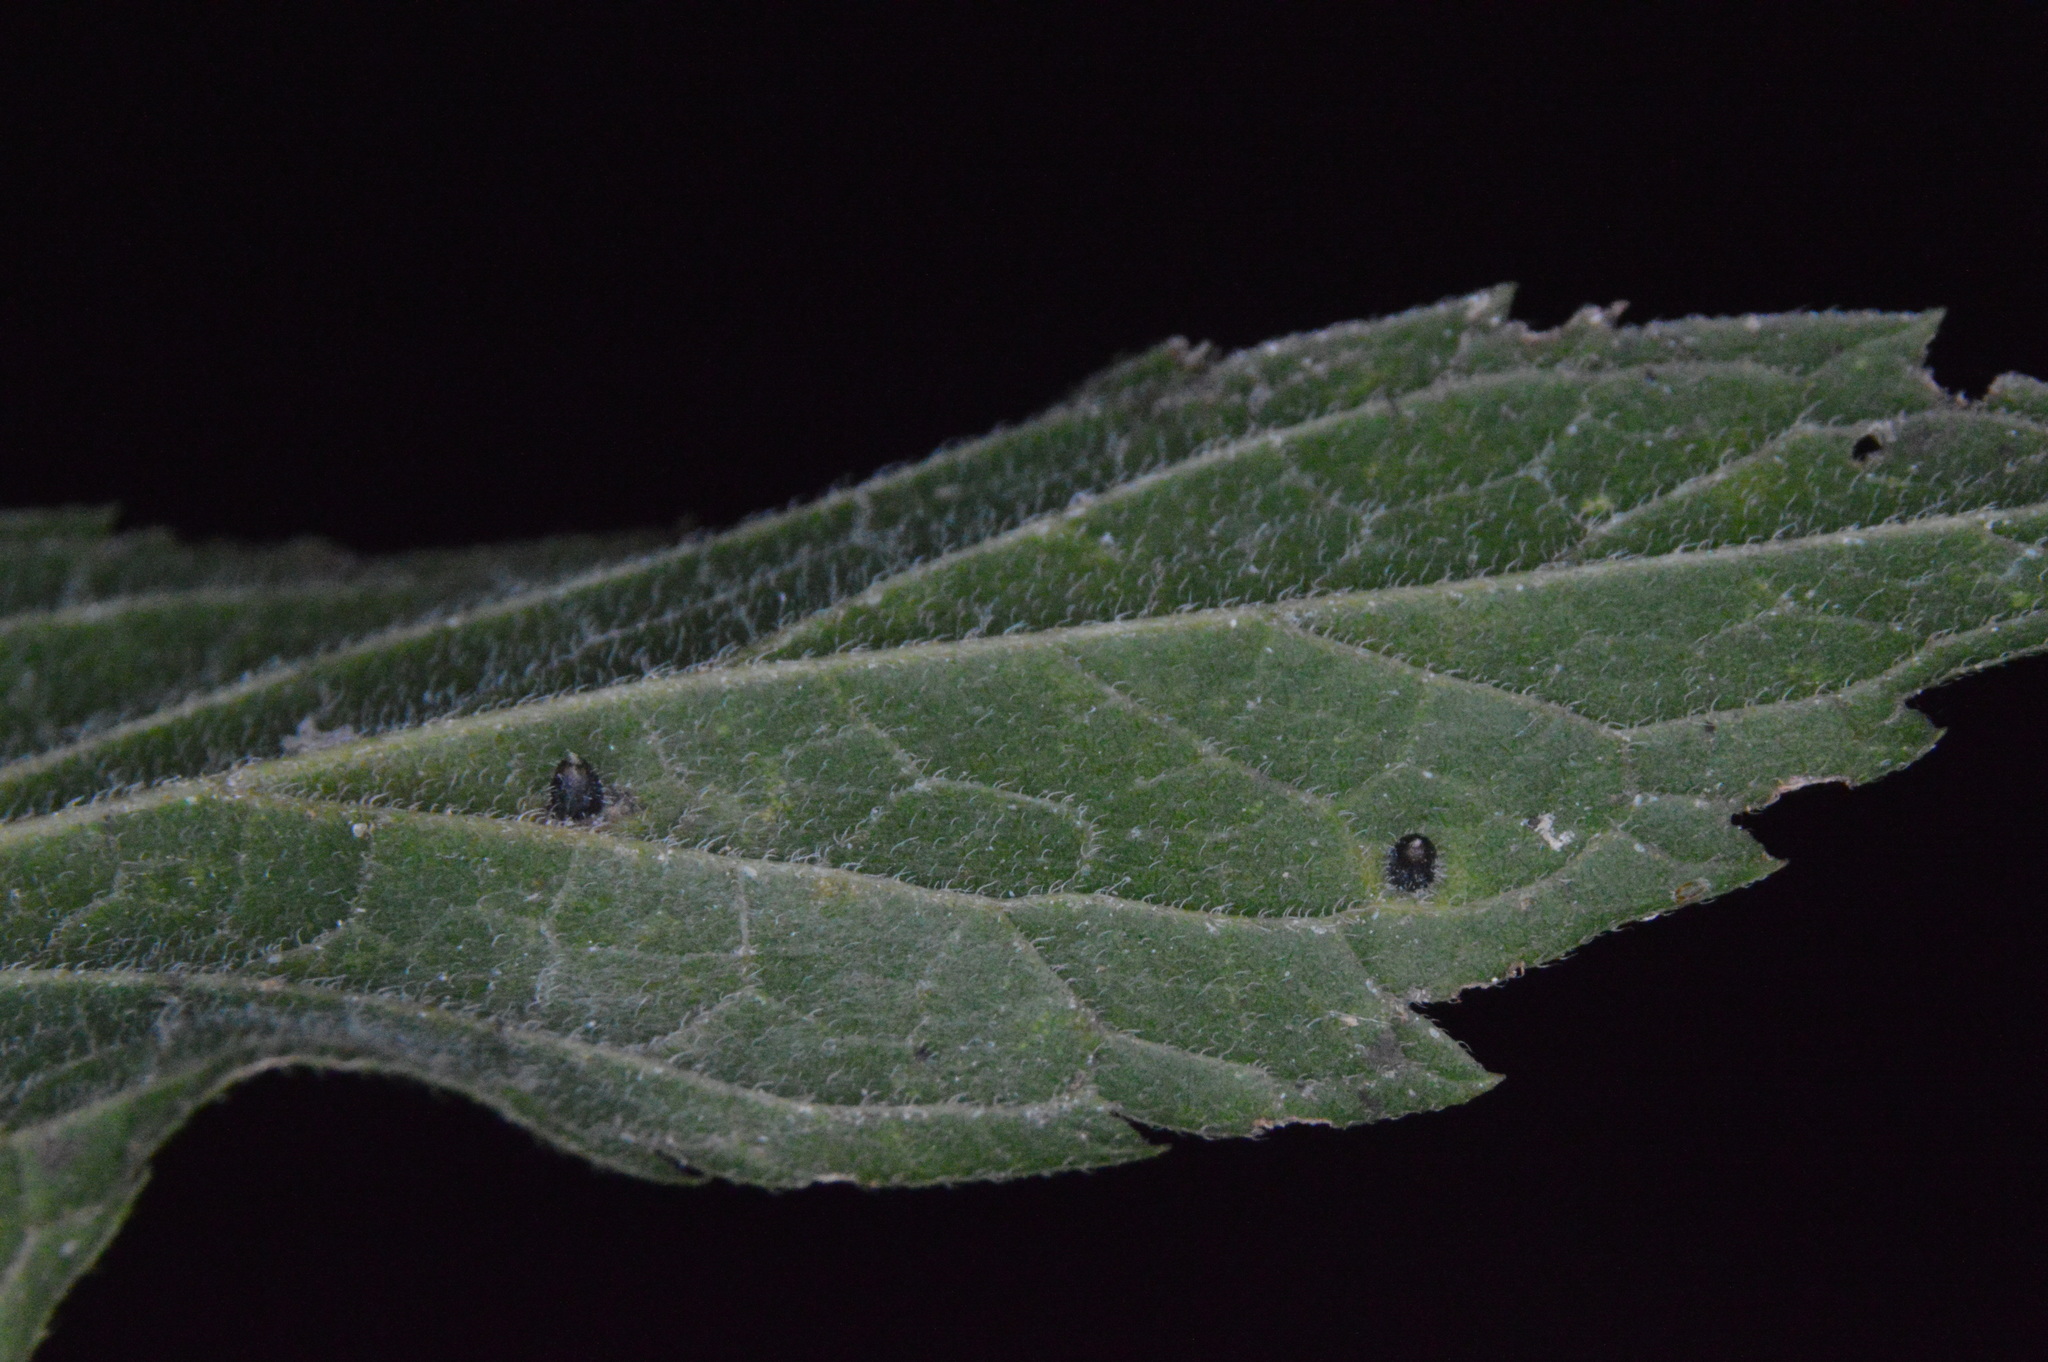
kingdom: Animalia
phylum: Arthropoda
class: Insecta
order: Diptera
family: Cecidomyiidae
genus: Celticecis
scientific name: Celticecis cupiformis
